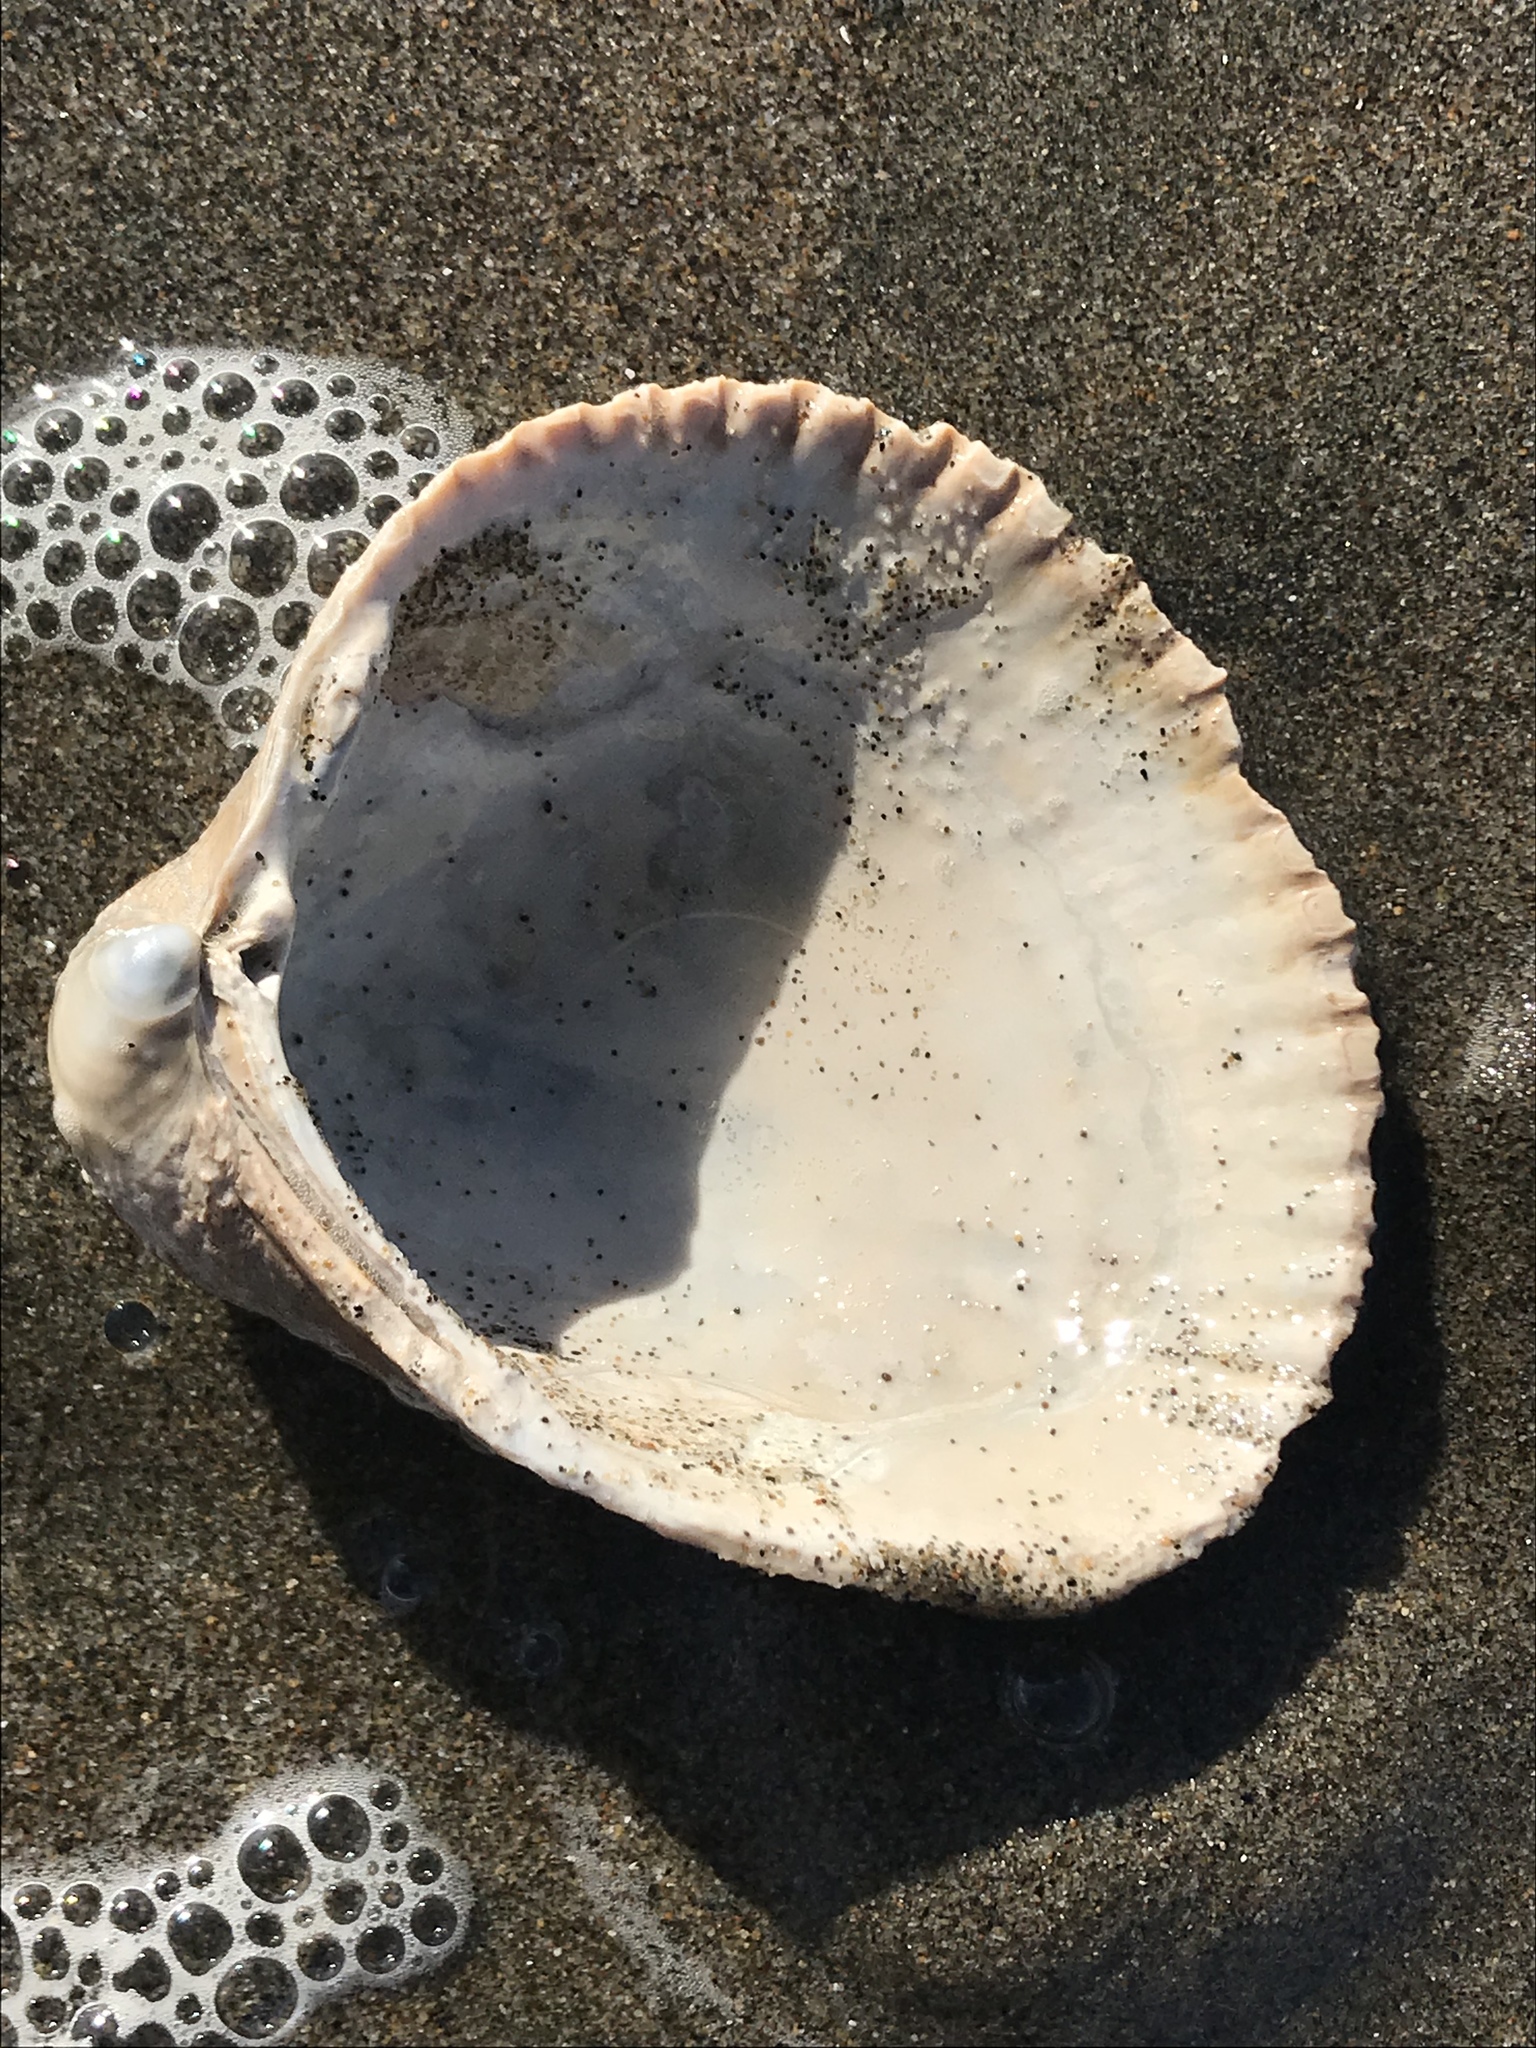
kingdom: Animalia
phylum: Mollusca
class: Bivalvia
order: Cardiida
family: Cardiidae
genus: Clinocardium
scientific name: Clinocardium nuttallii
